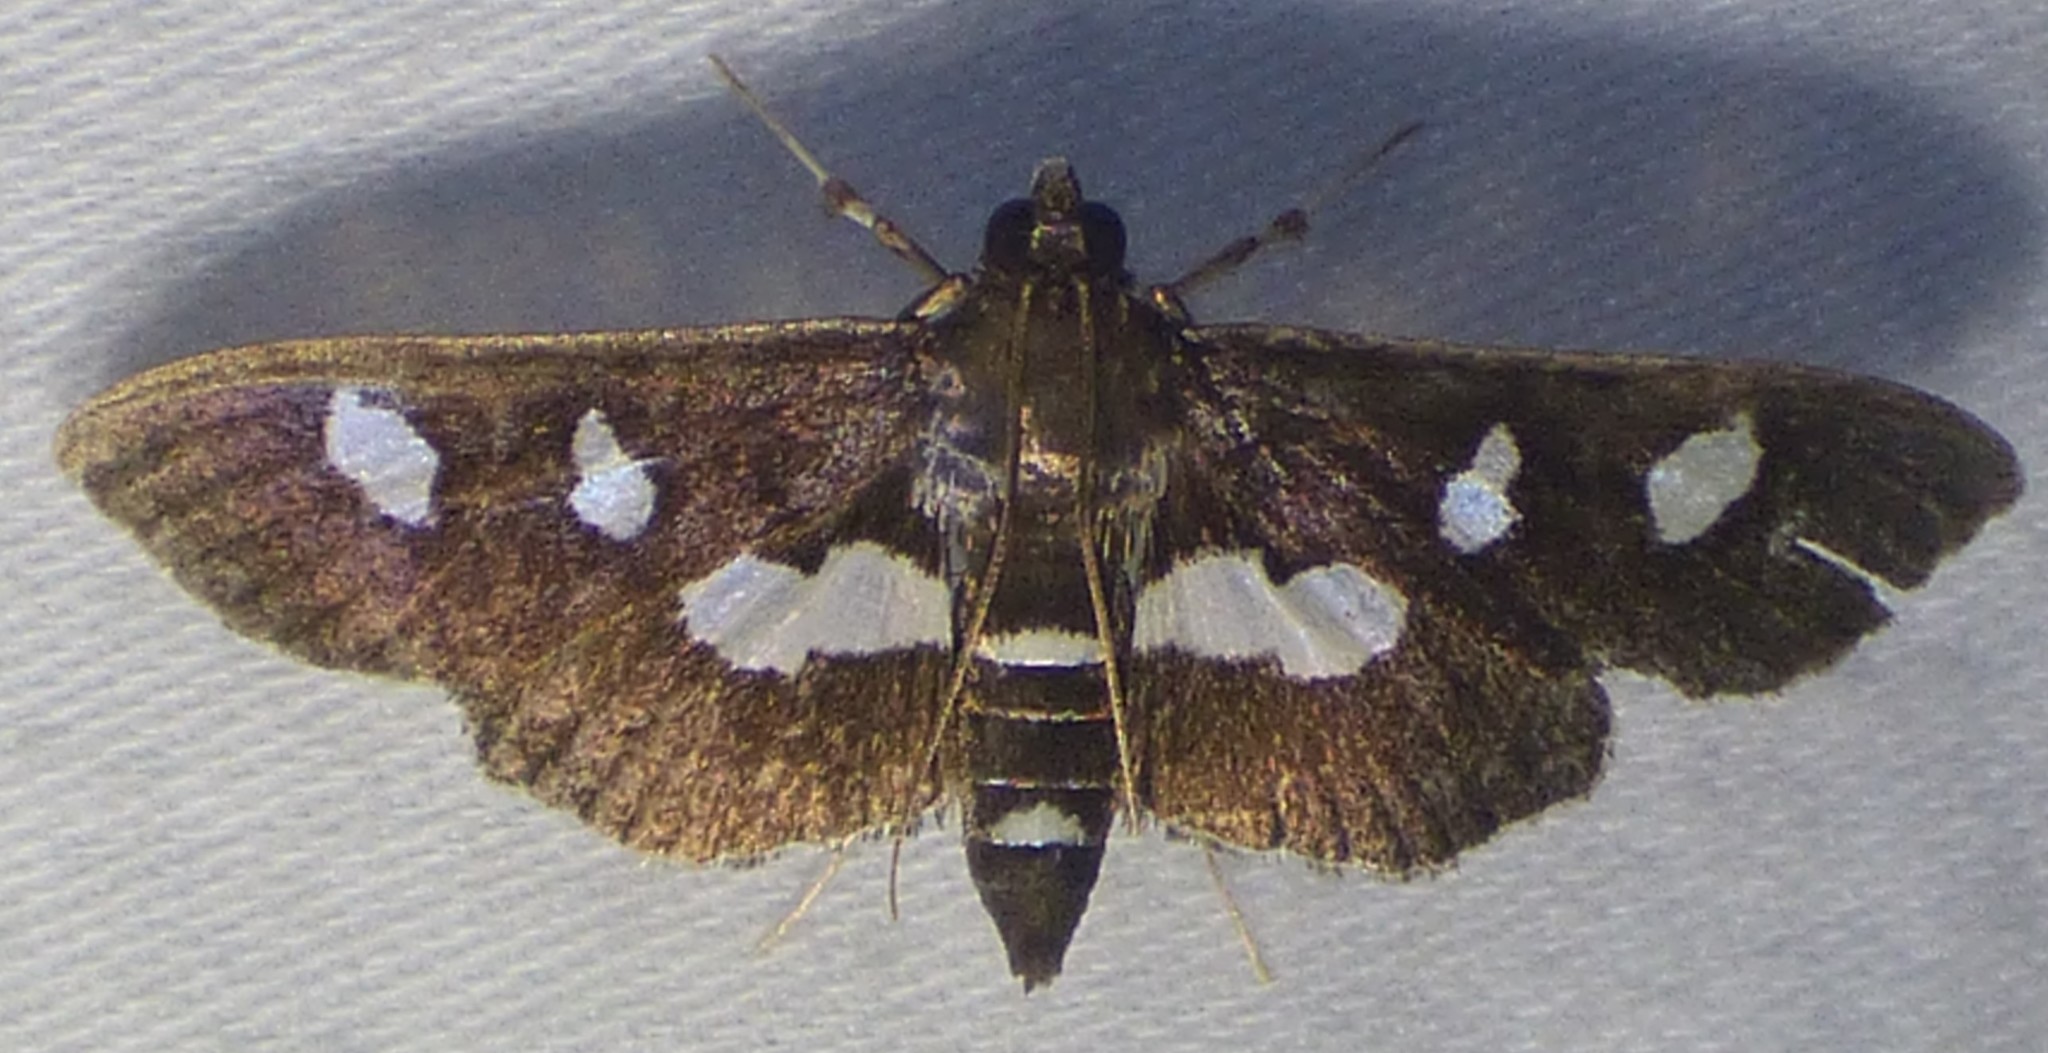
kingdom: Animalia
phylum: Arthropoda
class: Insecta
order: Lepidoptera
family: Crambidae
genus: Desmia
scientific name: Desmia funeralis
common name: Grape leaf folder moth
